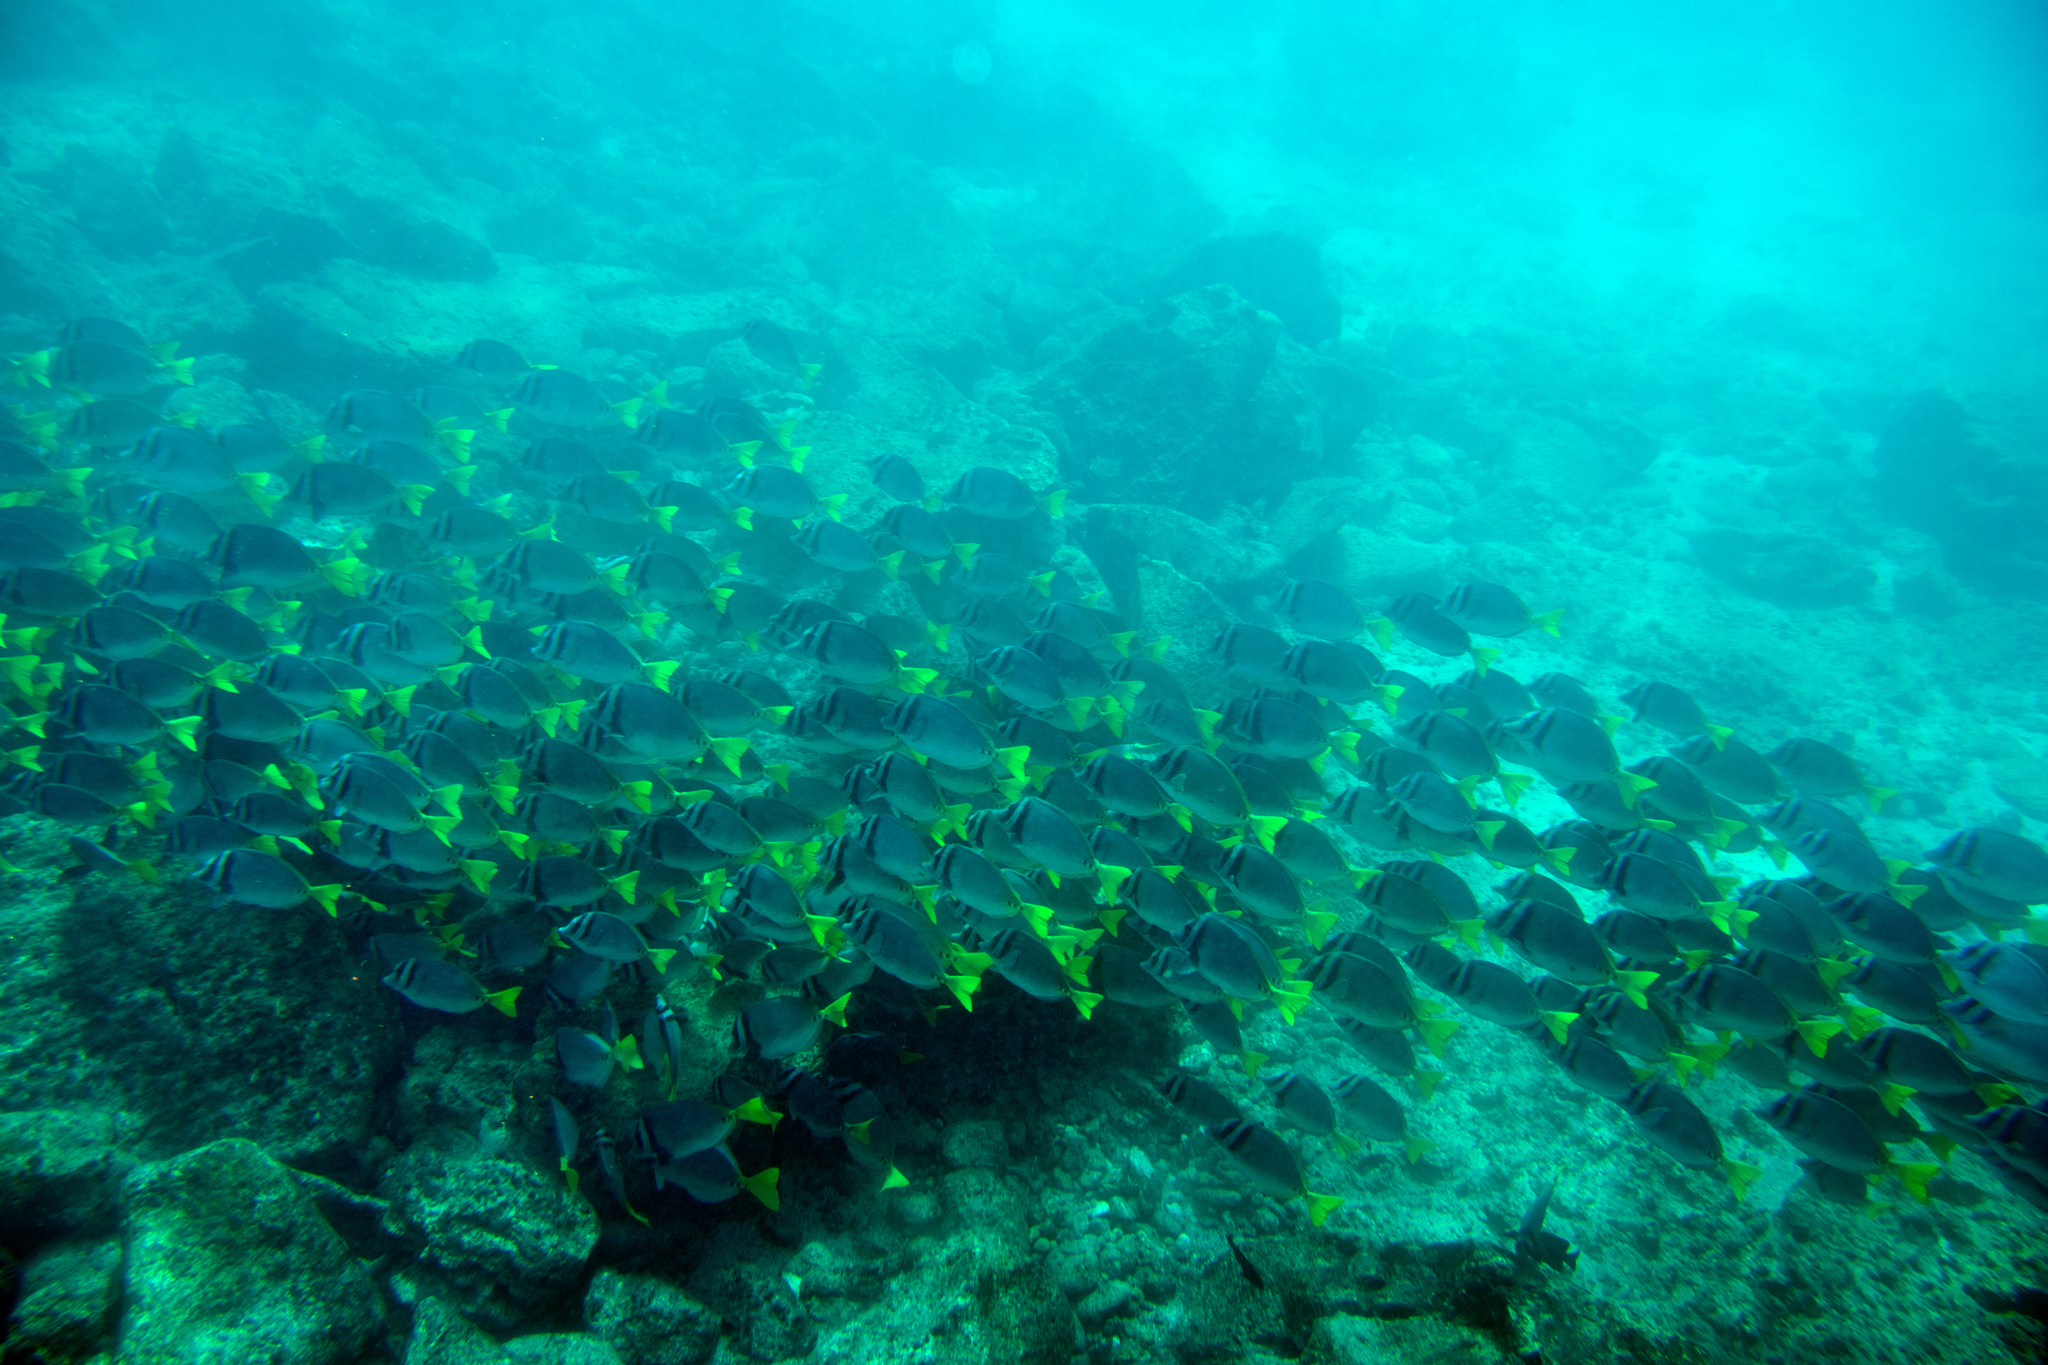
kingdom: Animalia
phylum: Chordata
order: Perciformes
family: Acanthuridae
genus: Prionurus
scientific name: Prionurus laticlavius
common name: Razor surgeonfish
